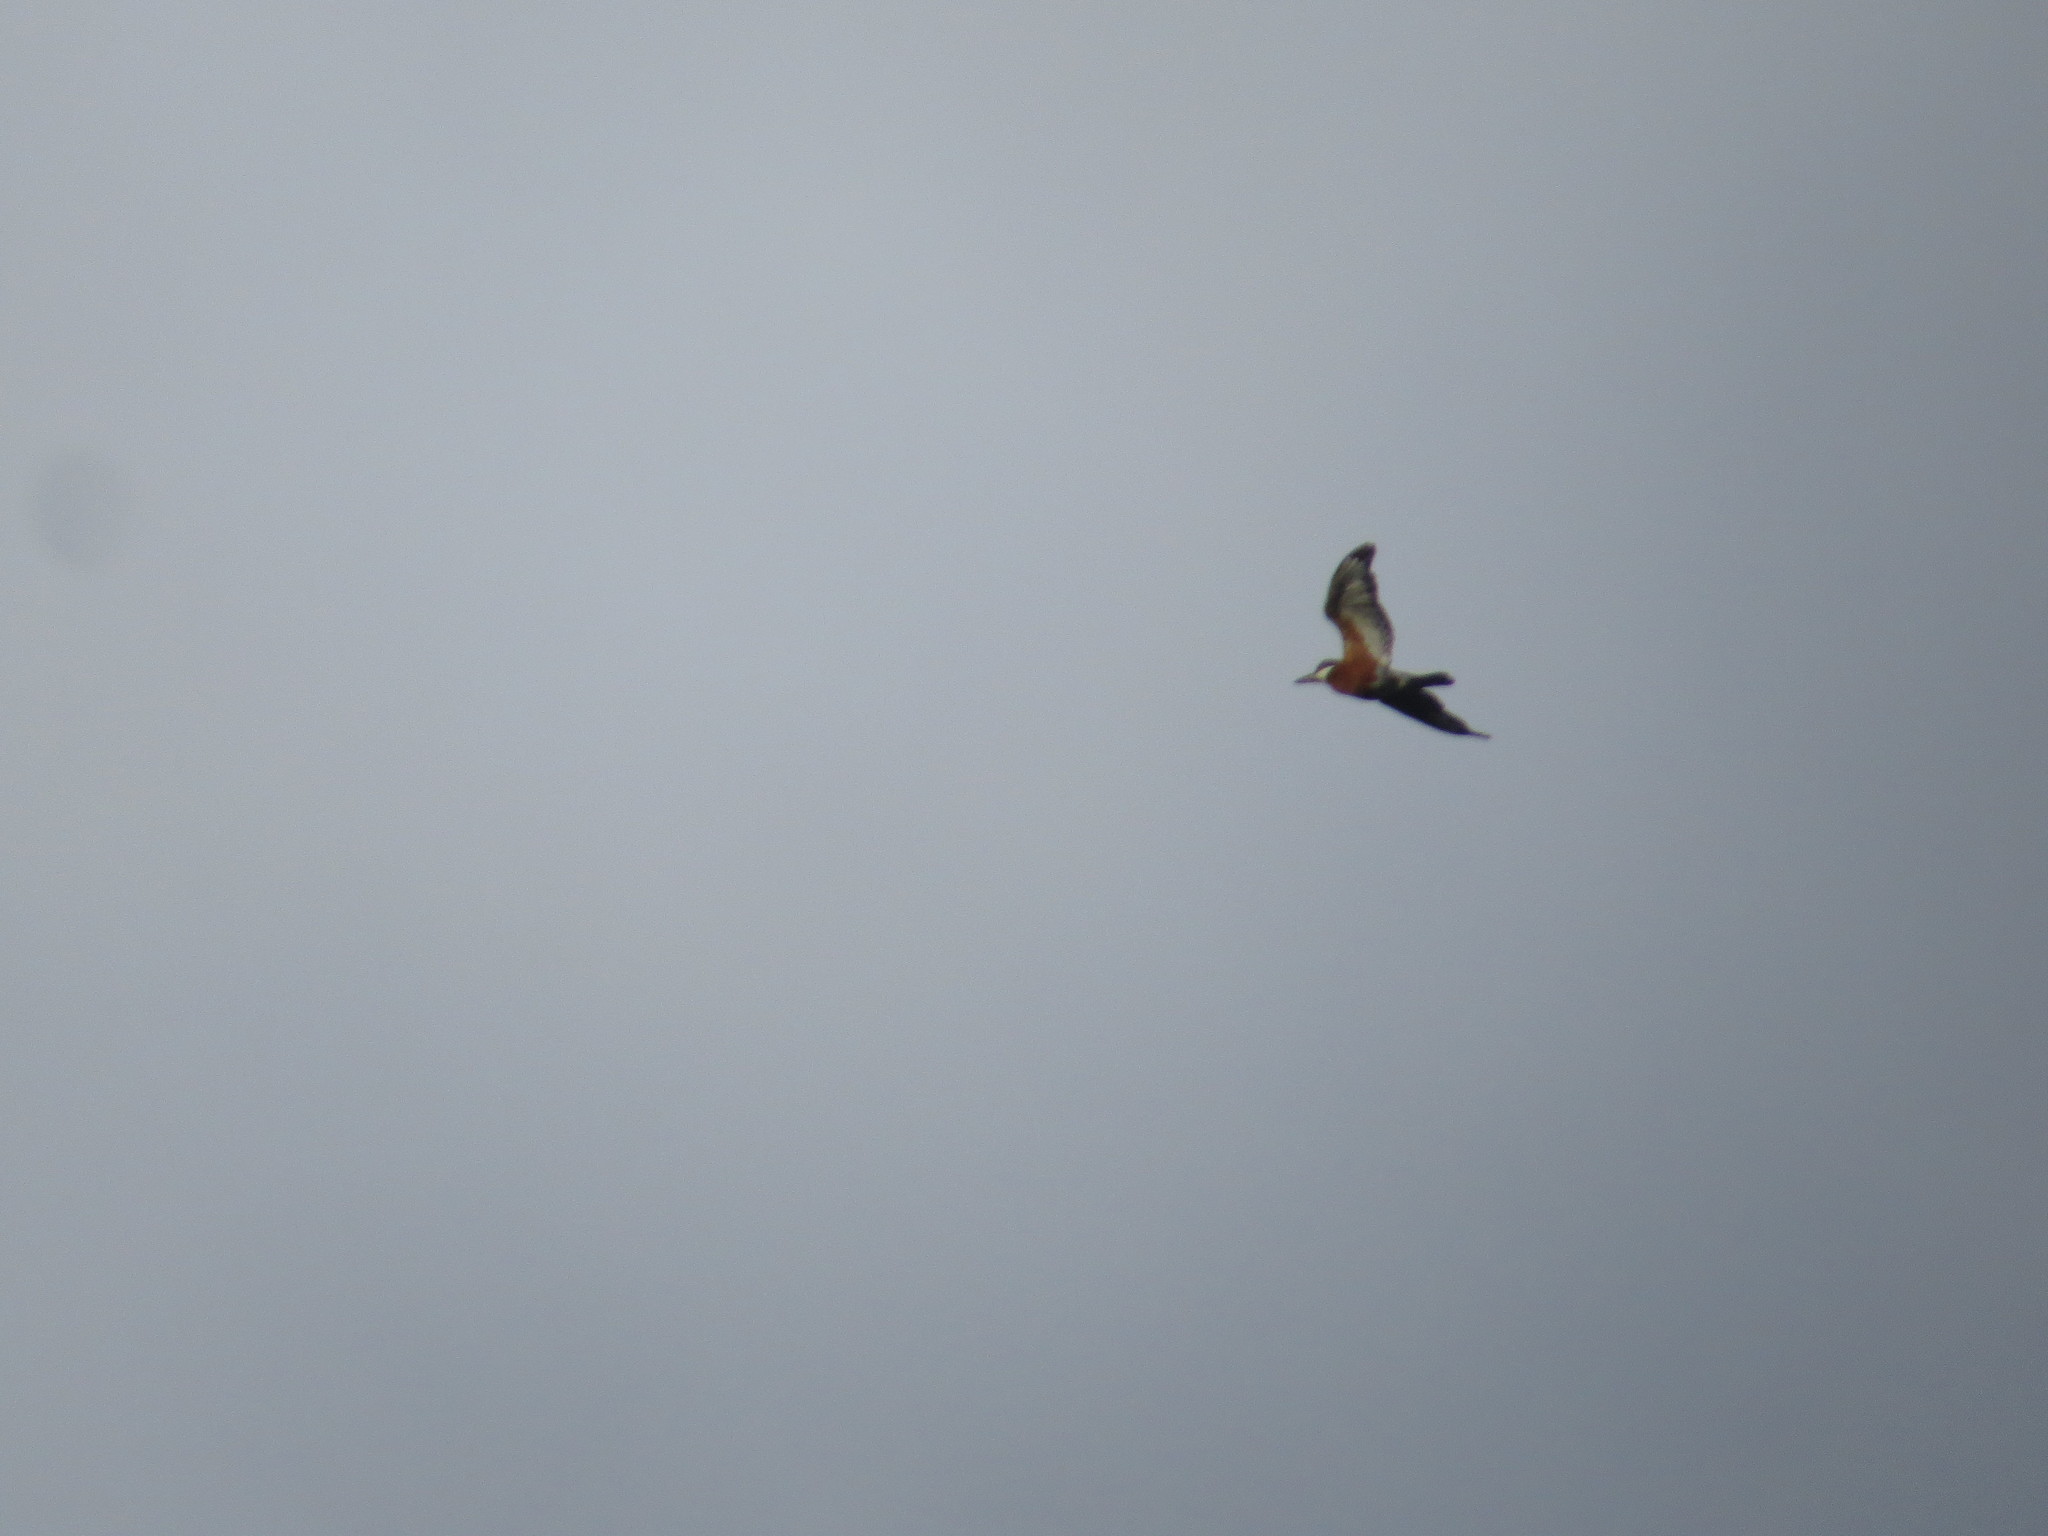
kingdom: Animalia
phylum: Chordata
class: Aves
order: Coraciiformes
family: Alcedinidae
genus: Megaceryle
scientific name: Megaceryle torquata
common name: Ringed kingfisher
